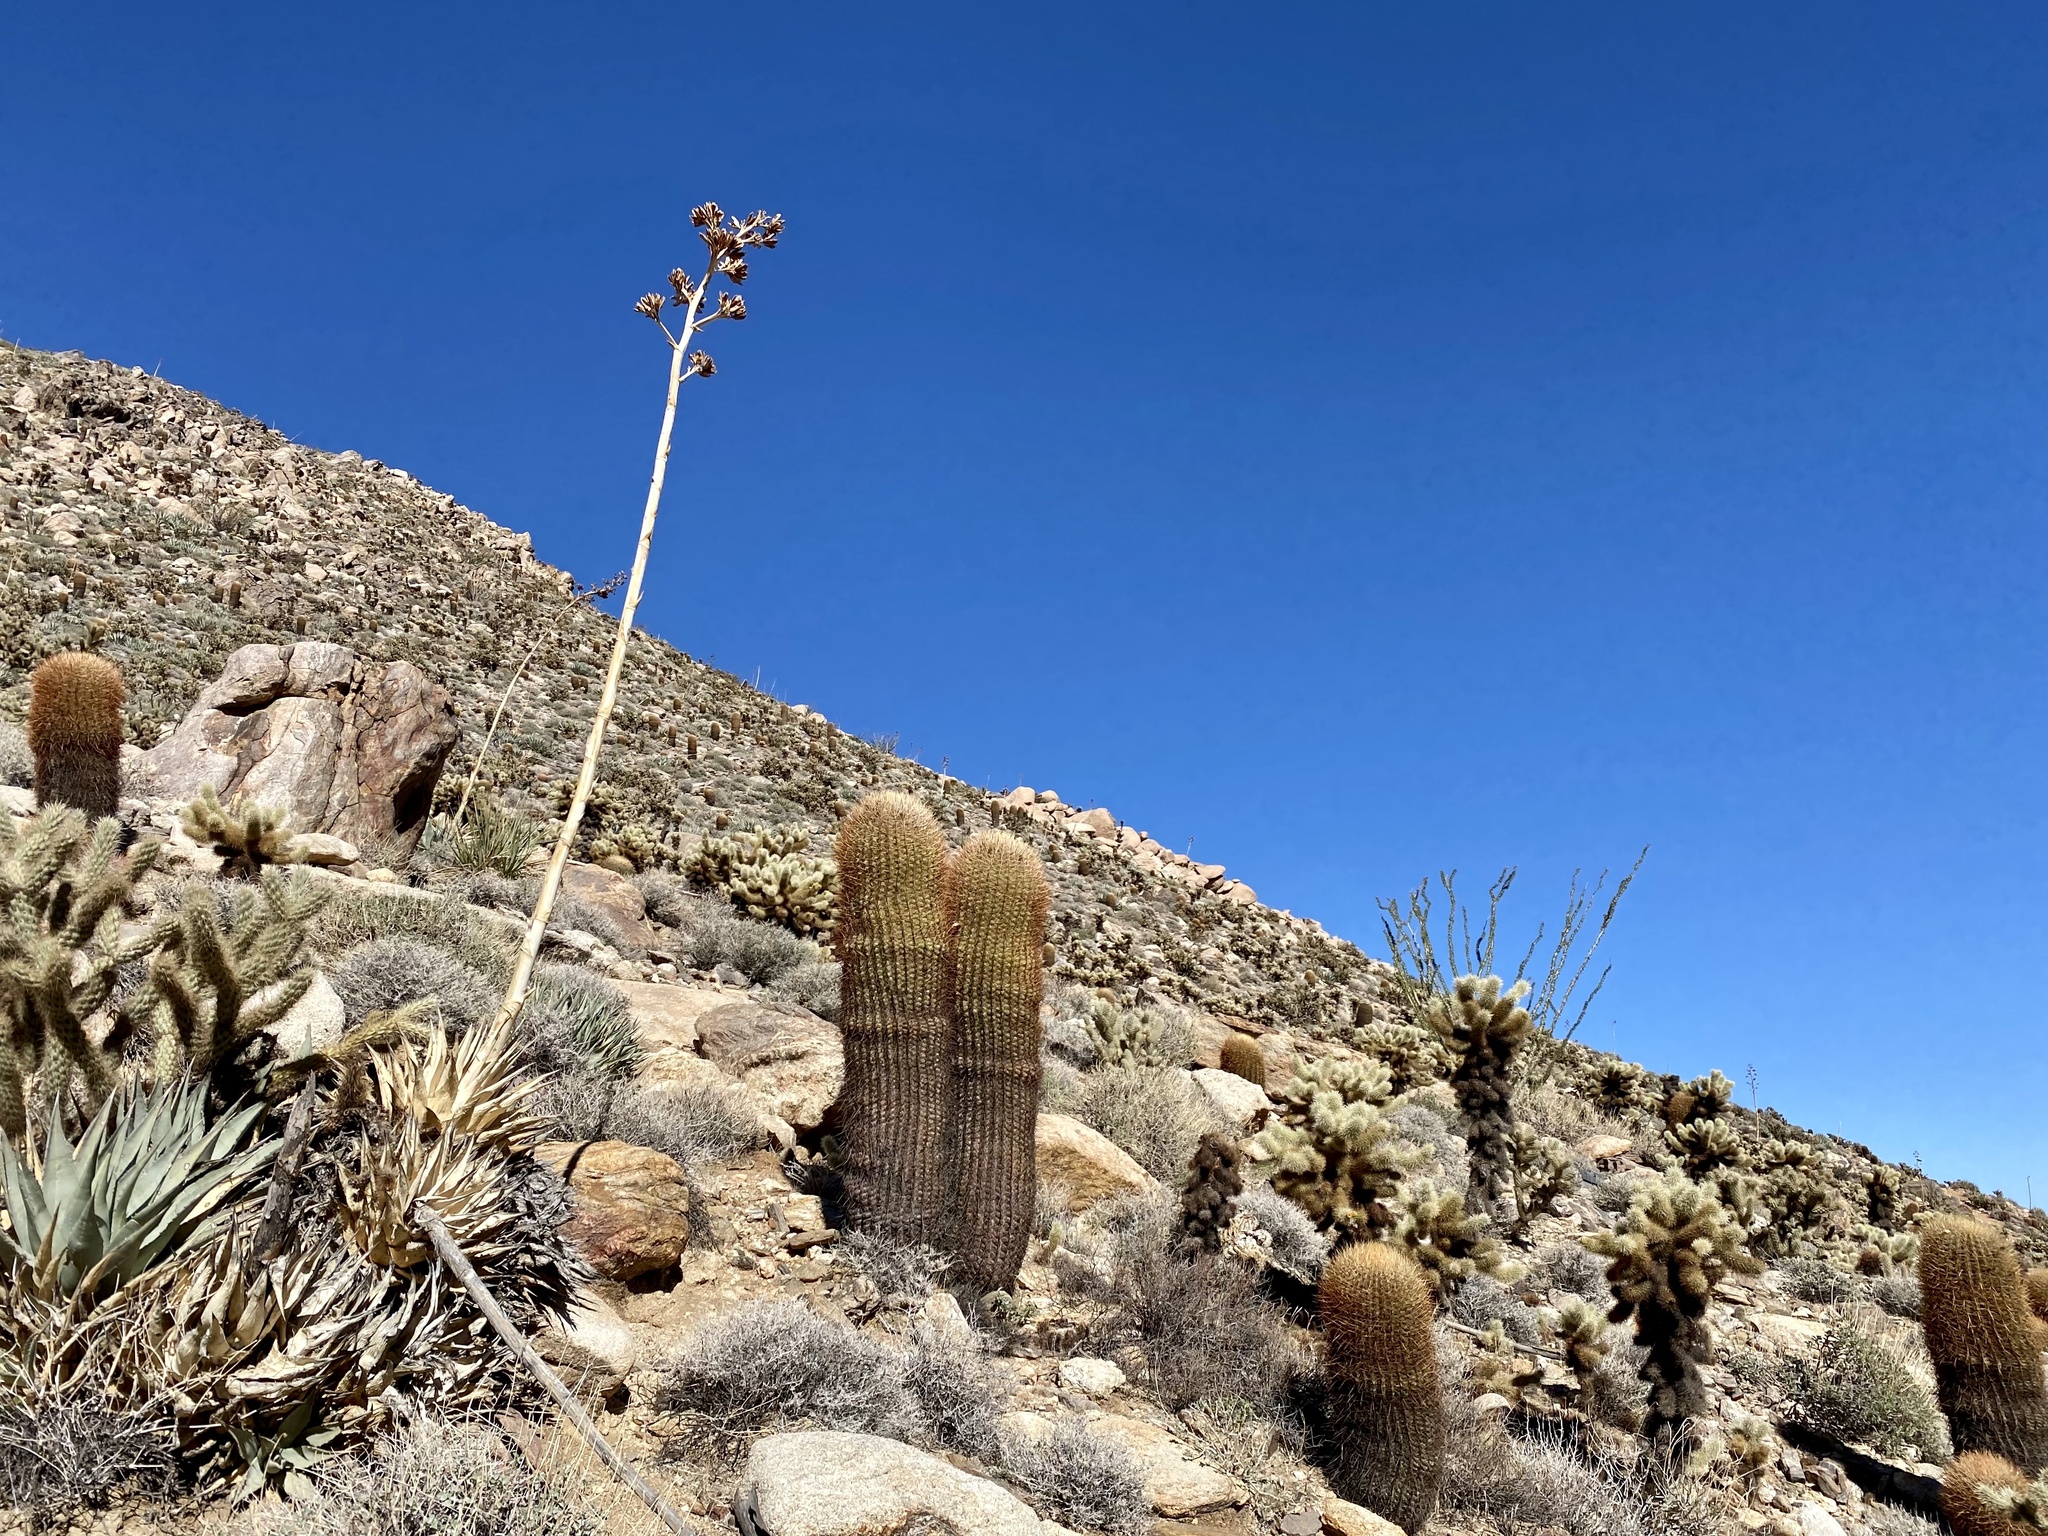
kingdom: Plantae
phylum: Tracheophyta
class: Magnoliopsida
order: Caryophyllales
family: Cactaceae
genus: Ferocactus
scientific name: Ferocactus cylindraceus
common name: California barrel cactus
